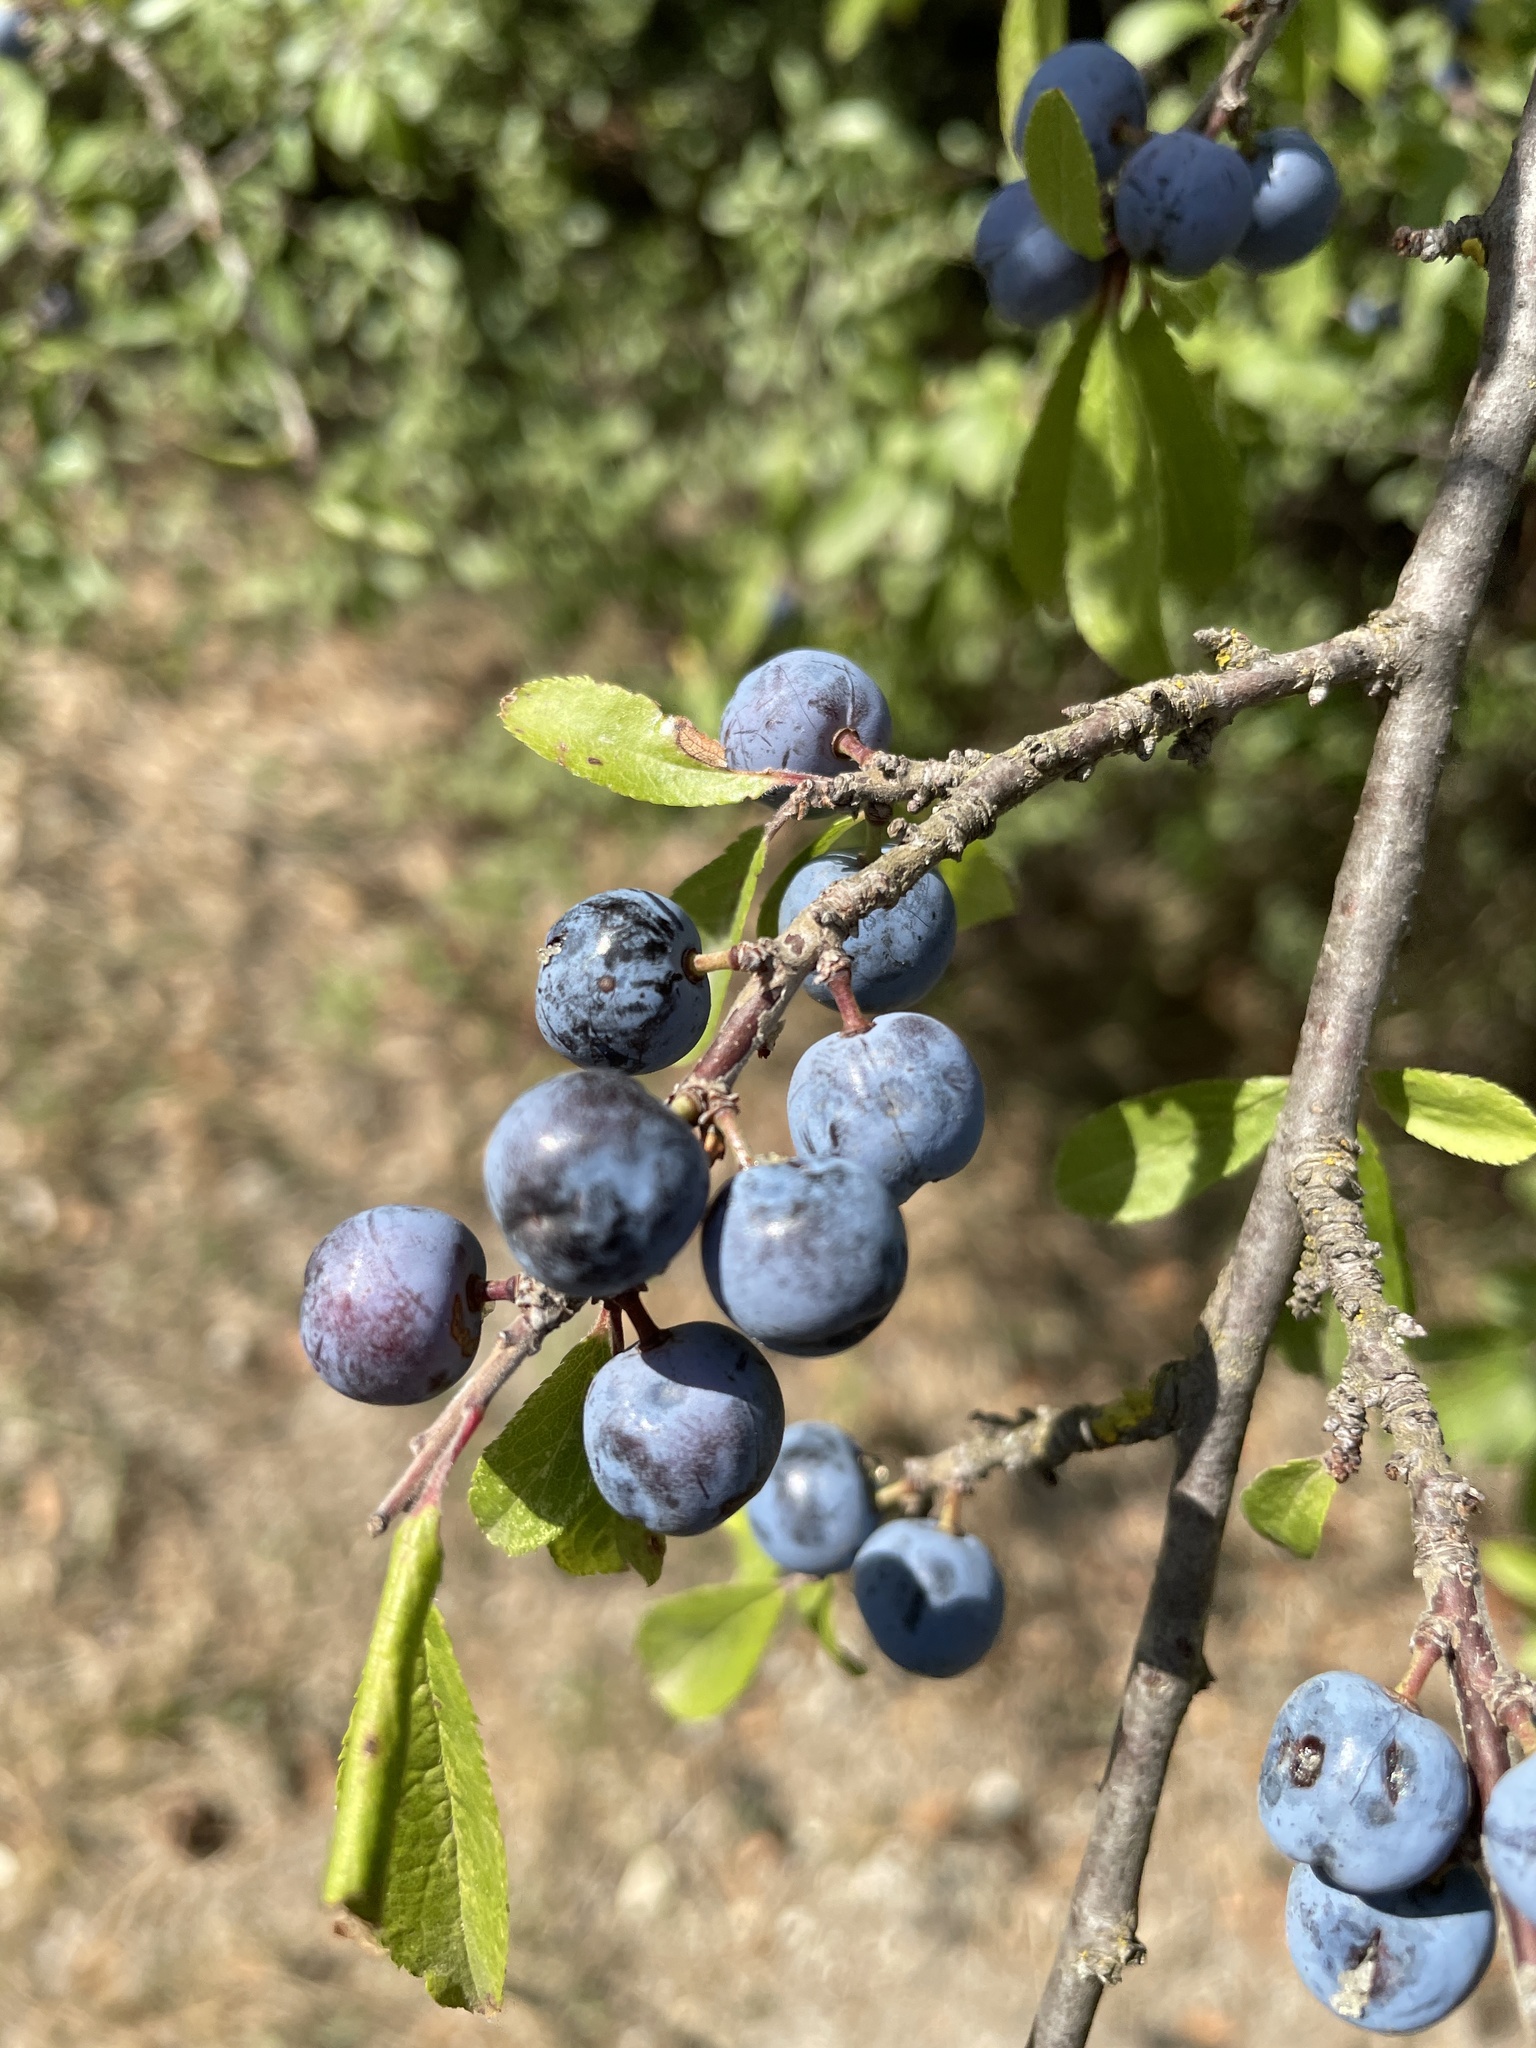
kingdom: Plantae
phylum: Tracheophyta
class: Magnoliopsida
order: Rosales
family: Rosaceae
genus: Prunus
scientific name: Prunus spinosa
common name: Blackthorn
